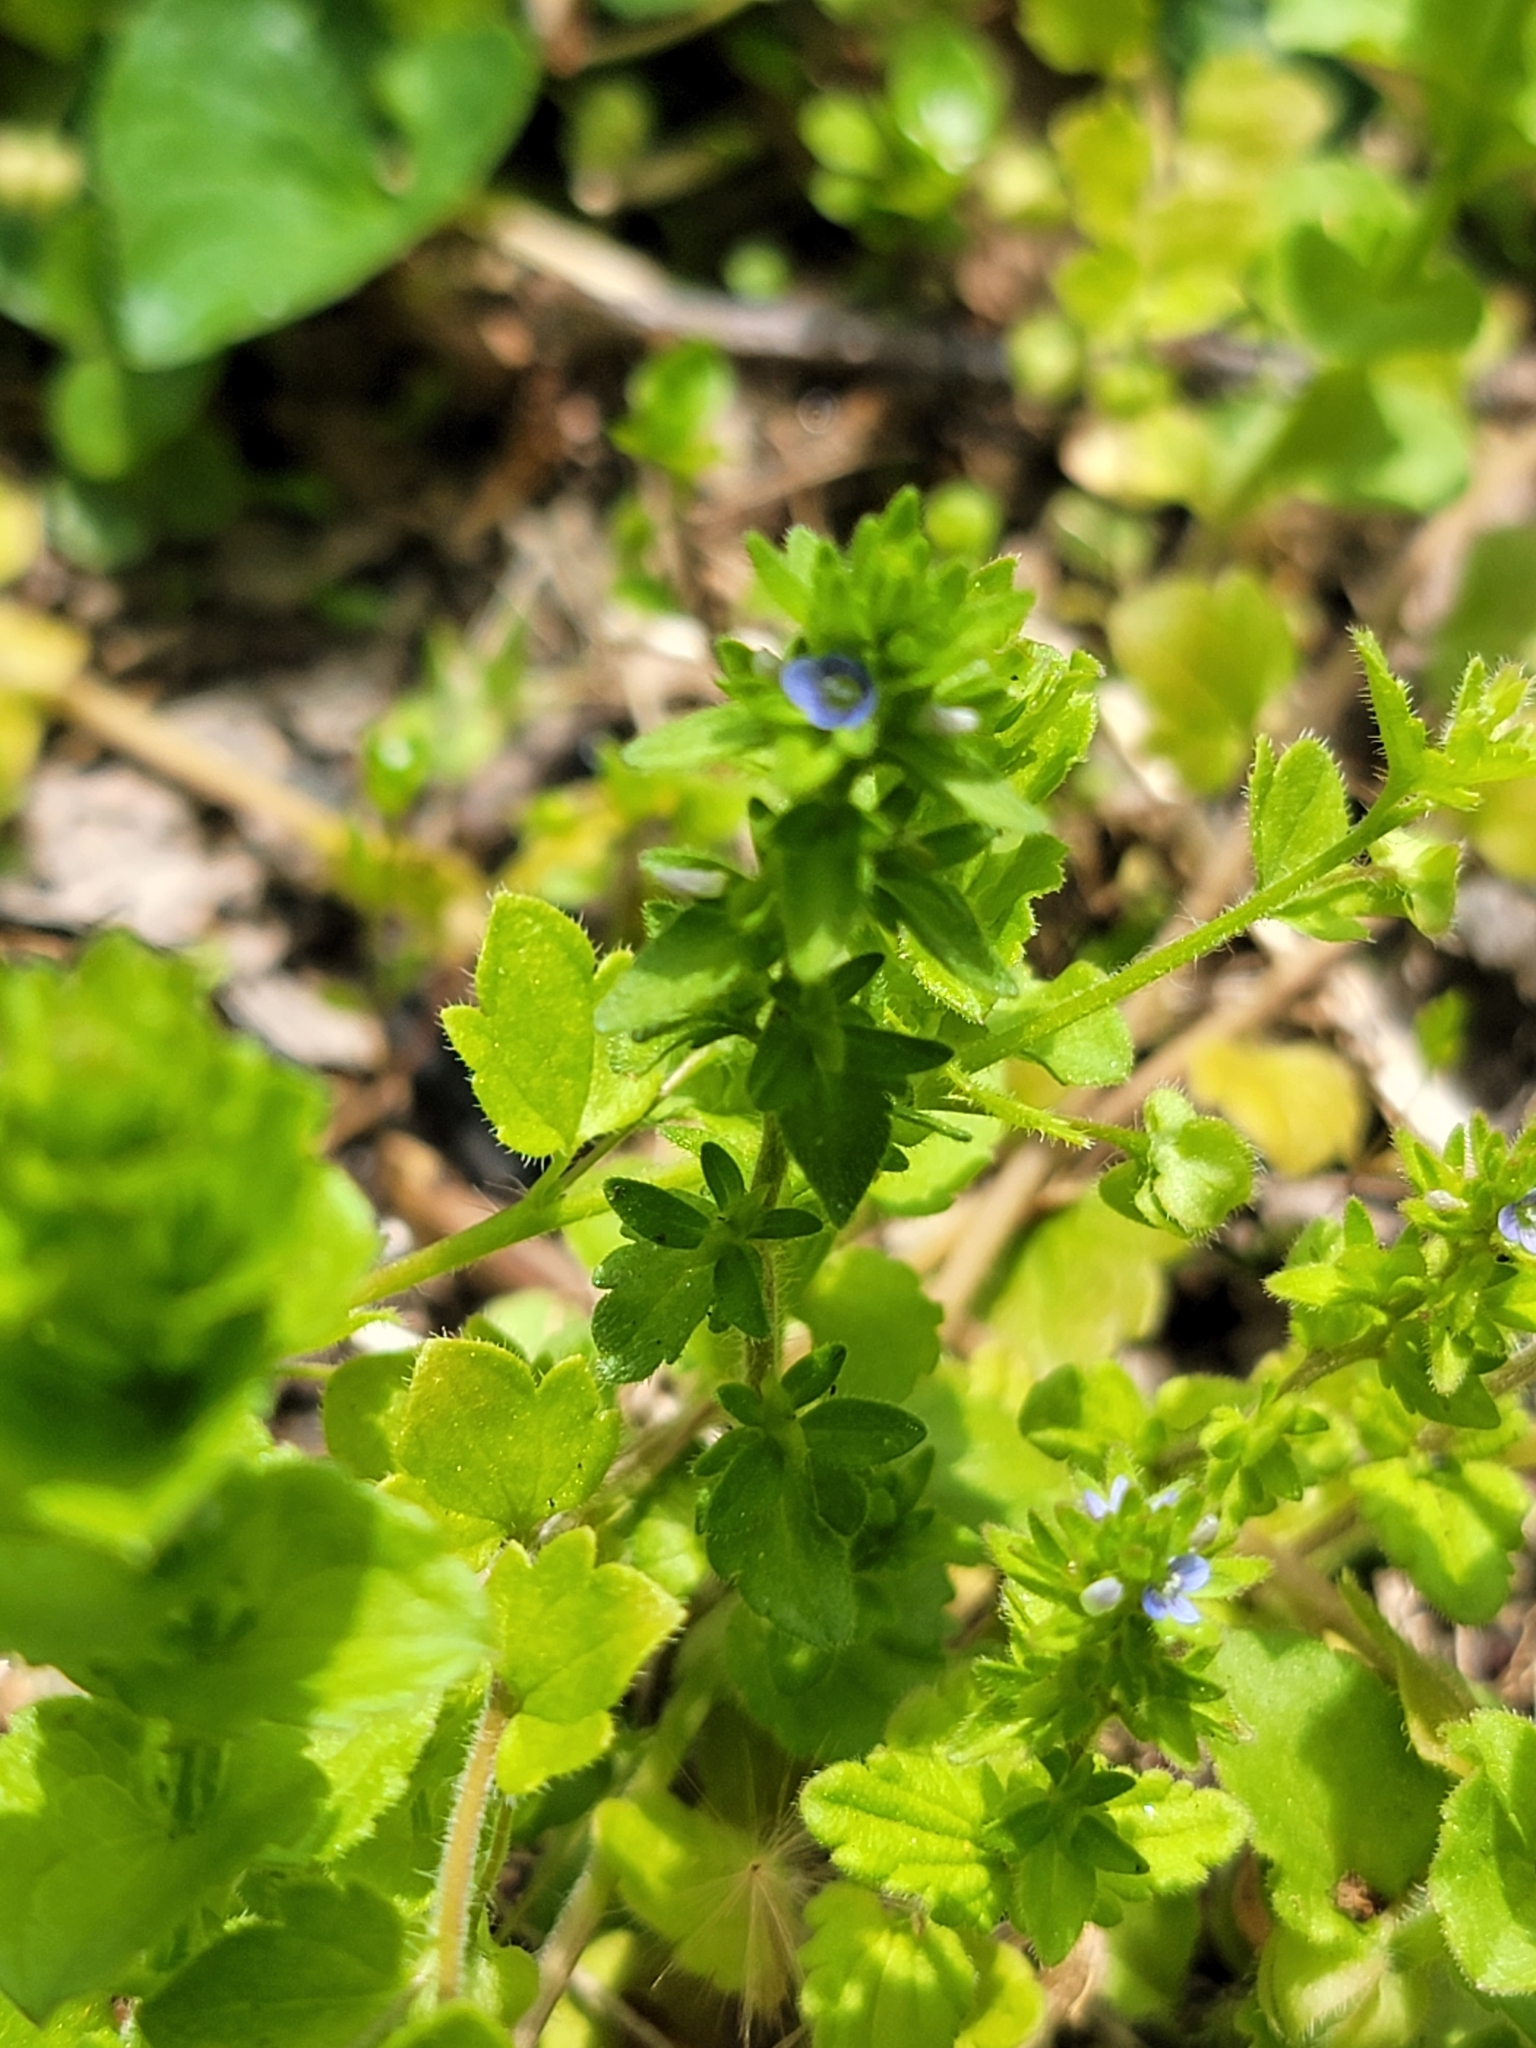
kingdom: Plantae
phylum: Tracheophyta
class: Magnoliopsida
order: Lamiales
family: Plantaginaceae
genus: Veronica
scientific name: Veronica arvensis
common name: Corn speedwell
